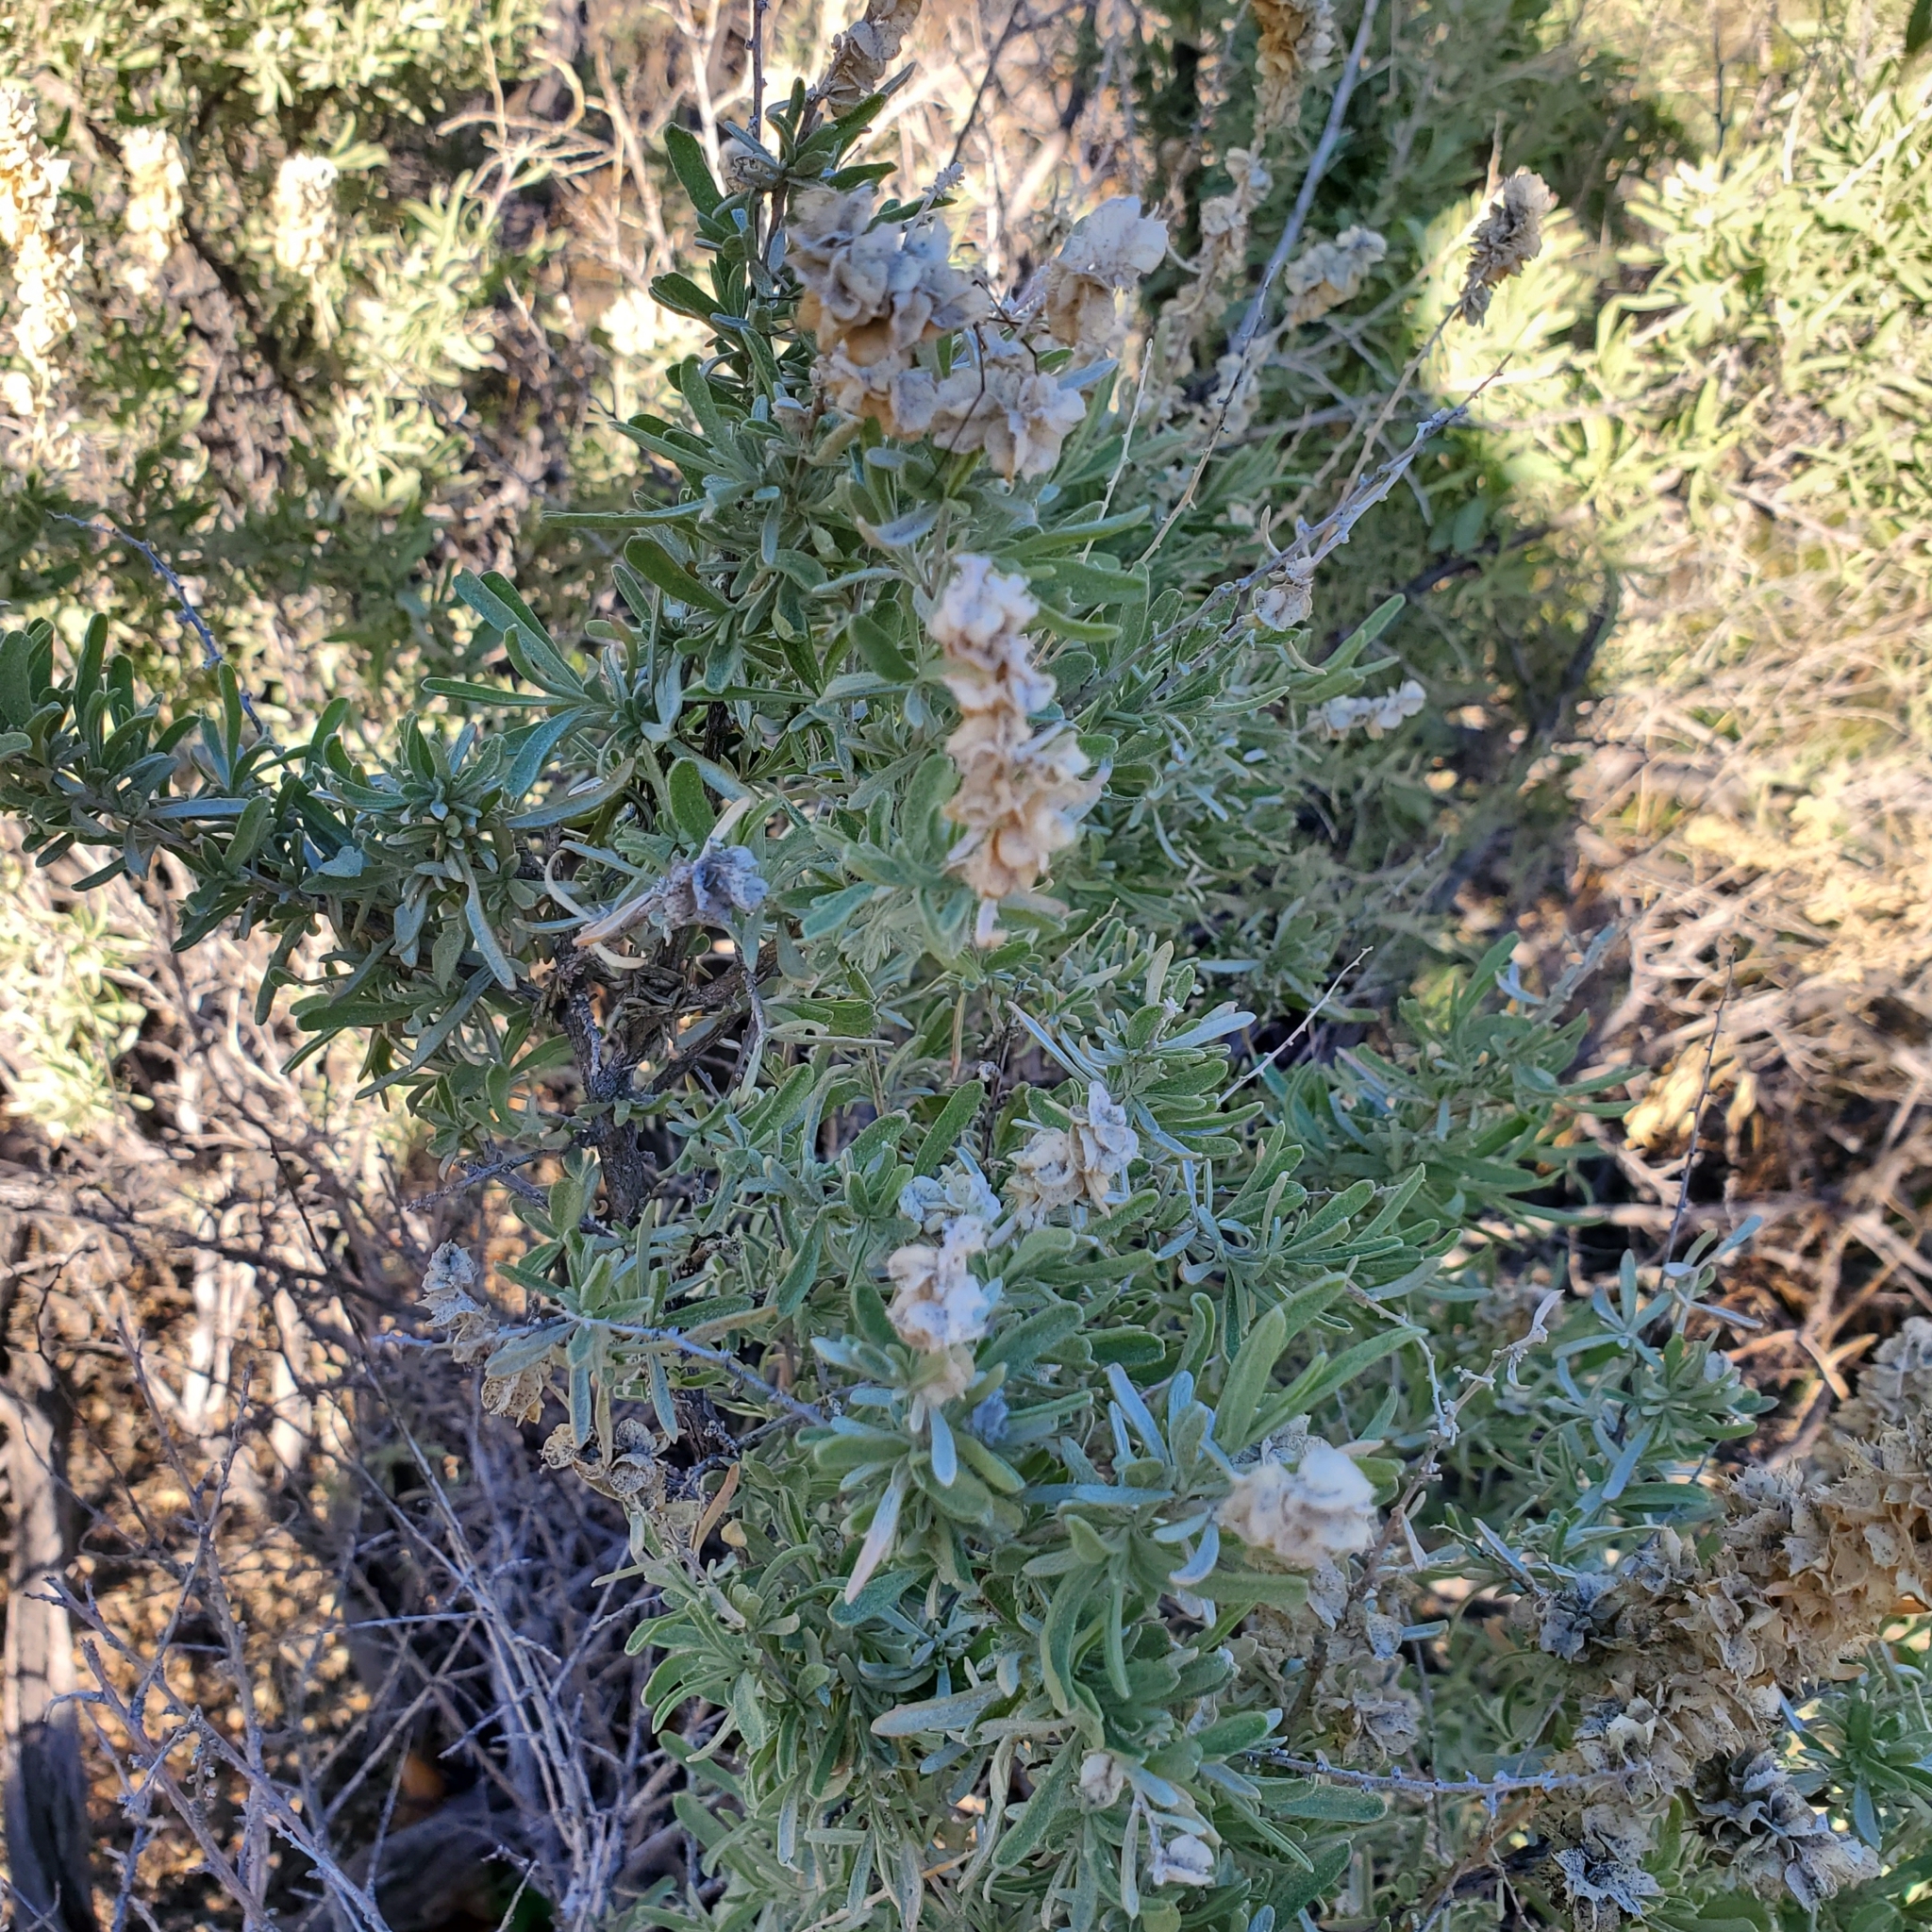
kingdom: Plantae
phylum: Tracheophyta
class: Magnoliopsida
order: Caryophyllales
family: Amaranthaceae
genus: Atriplex
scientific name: Atriplex canescens
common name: Four-wing saltbush
